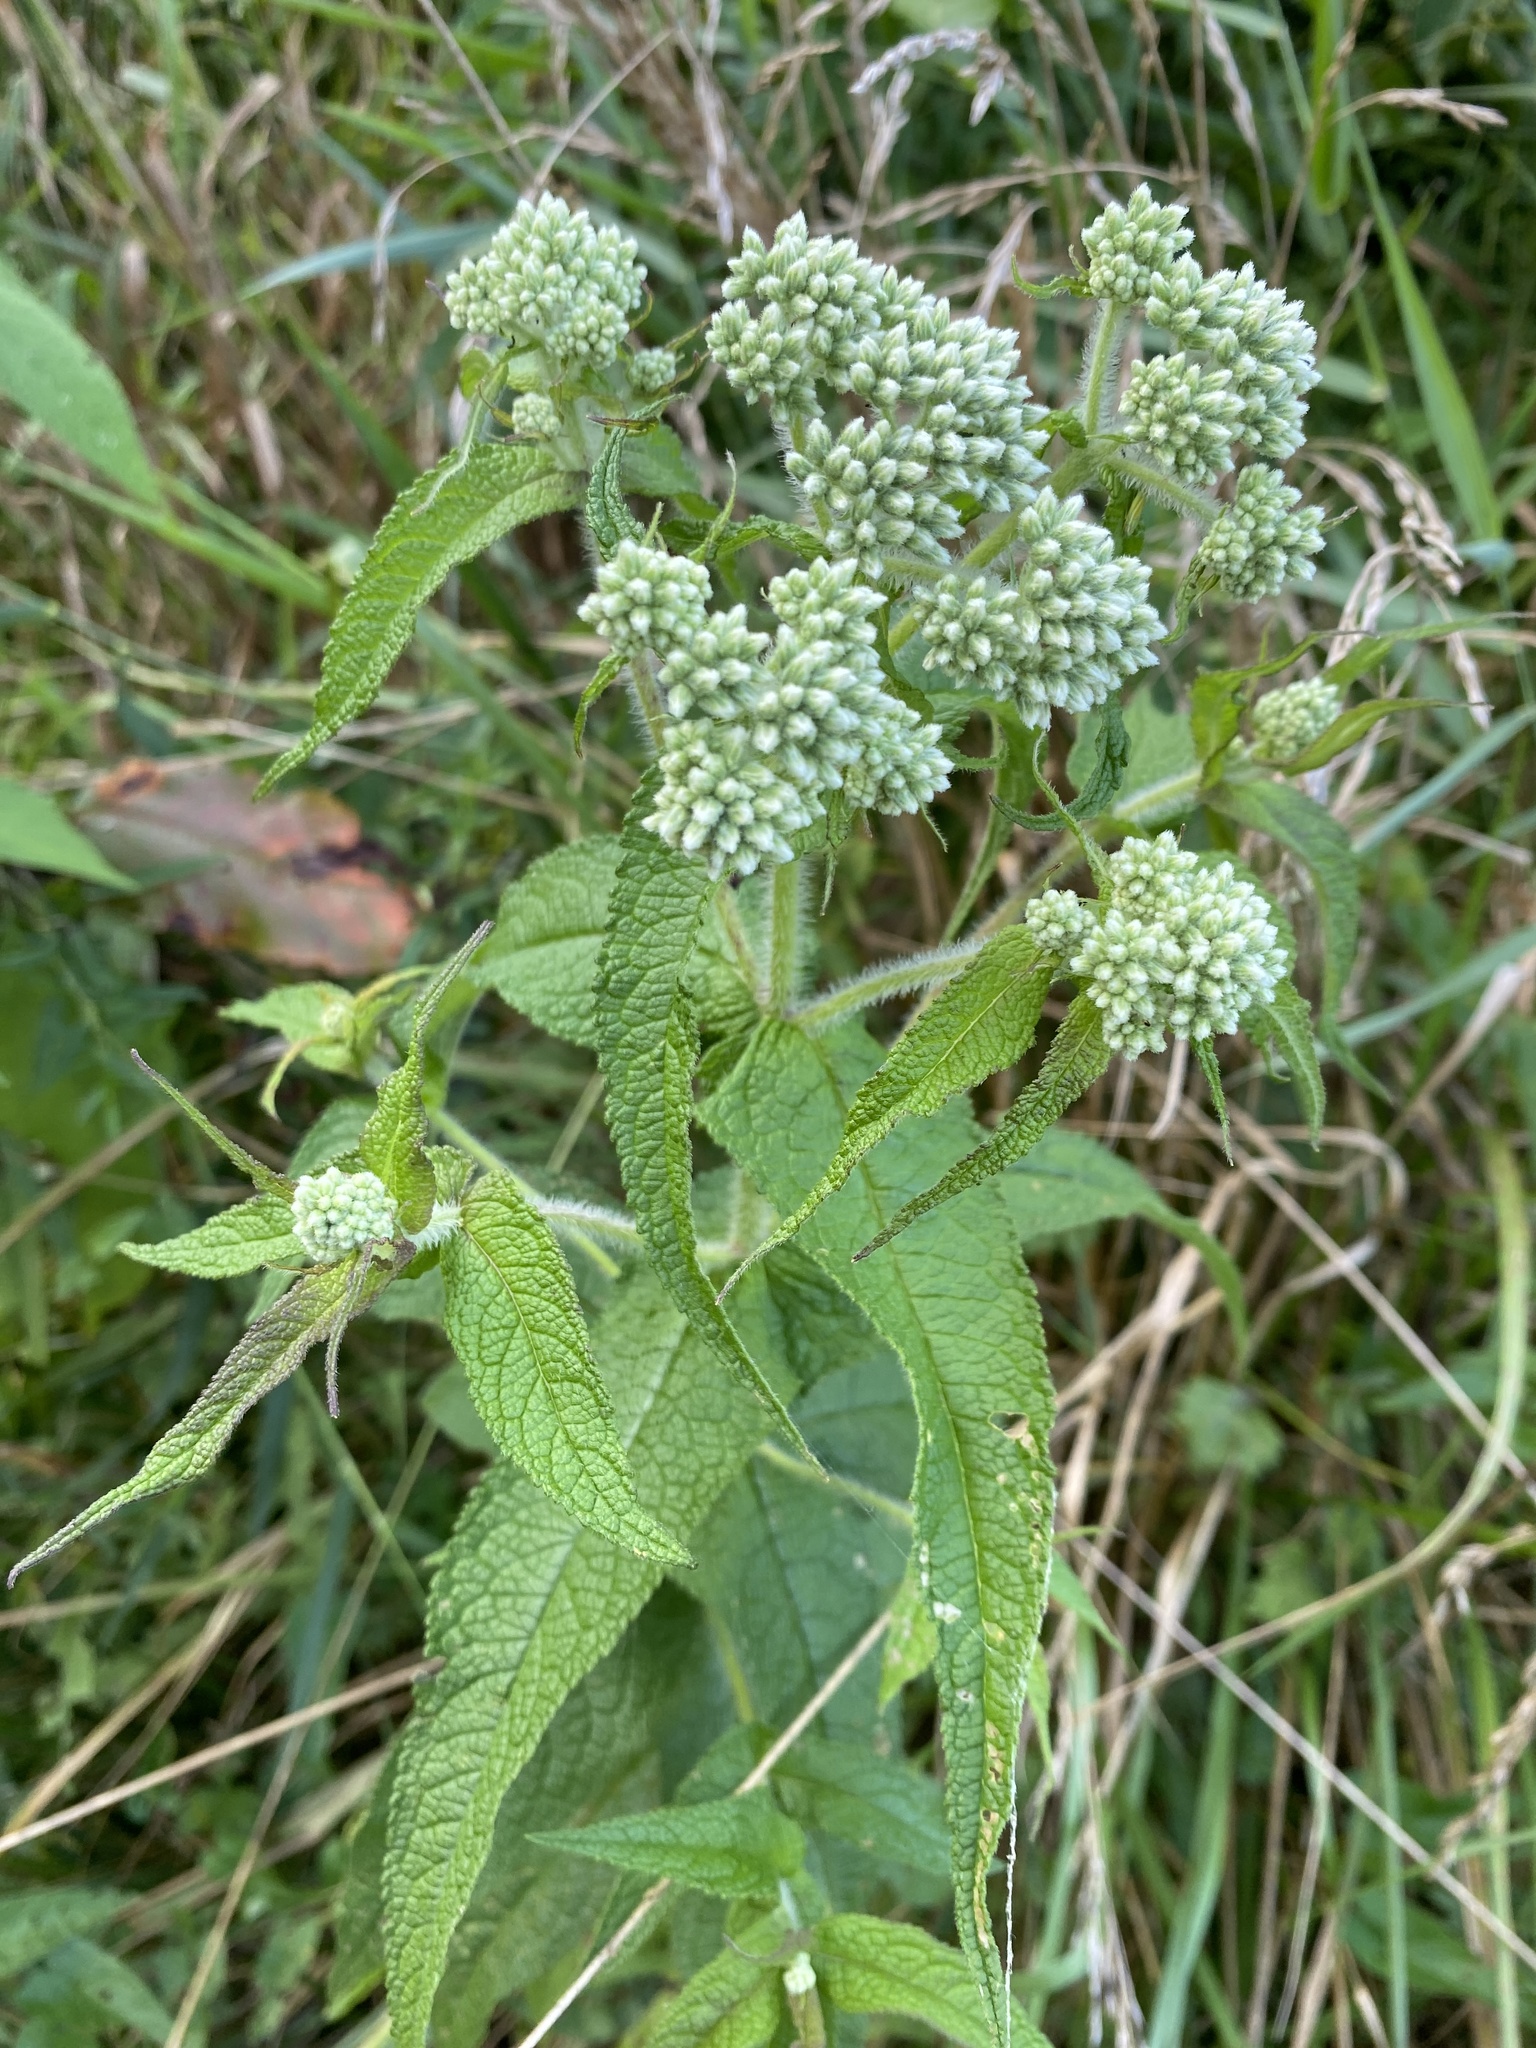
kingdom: Plantae
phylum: Tracheophyta
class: Magnoliopsida
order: Asterales
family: Asteraceae
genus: Eupatorium
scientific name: Eupatorium perfoliatum
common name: Boneset
